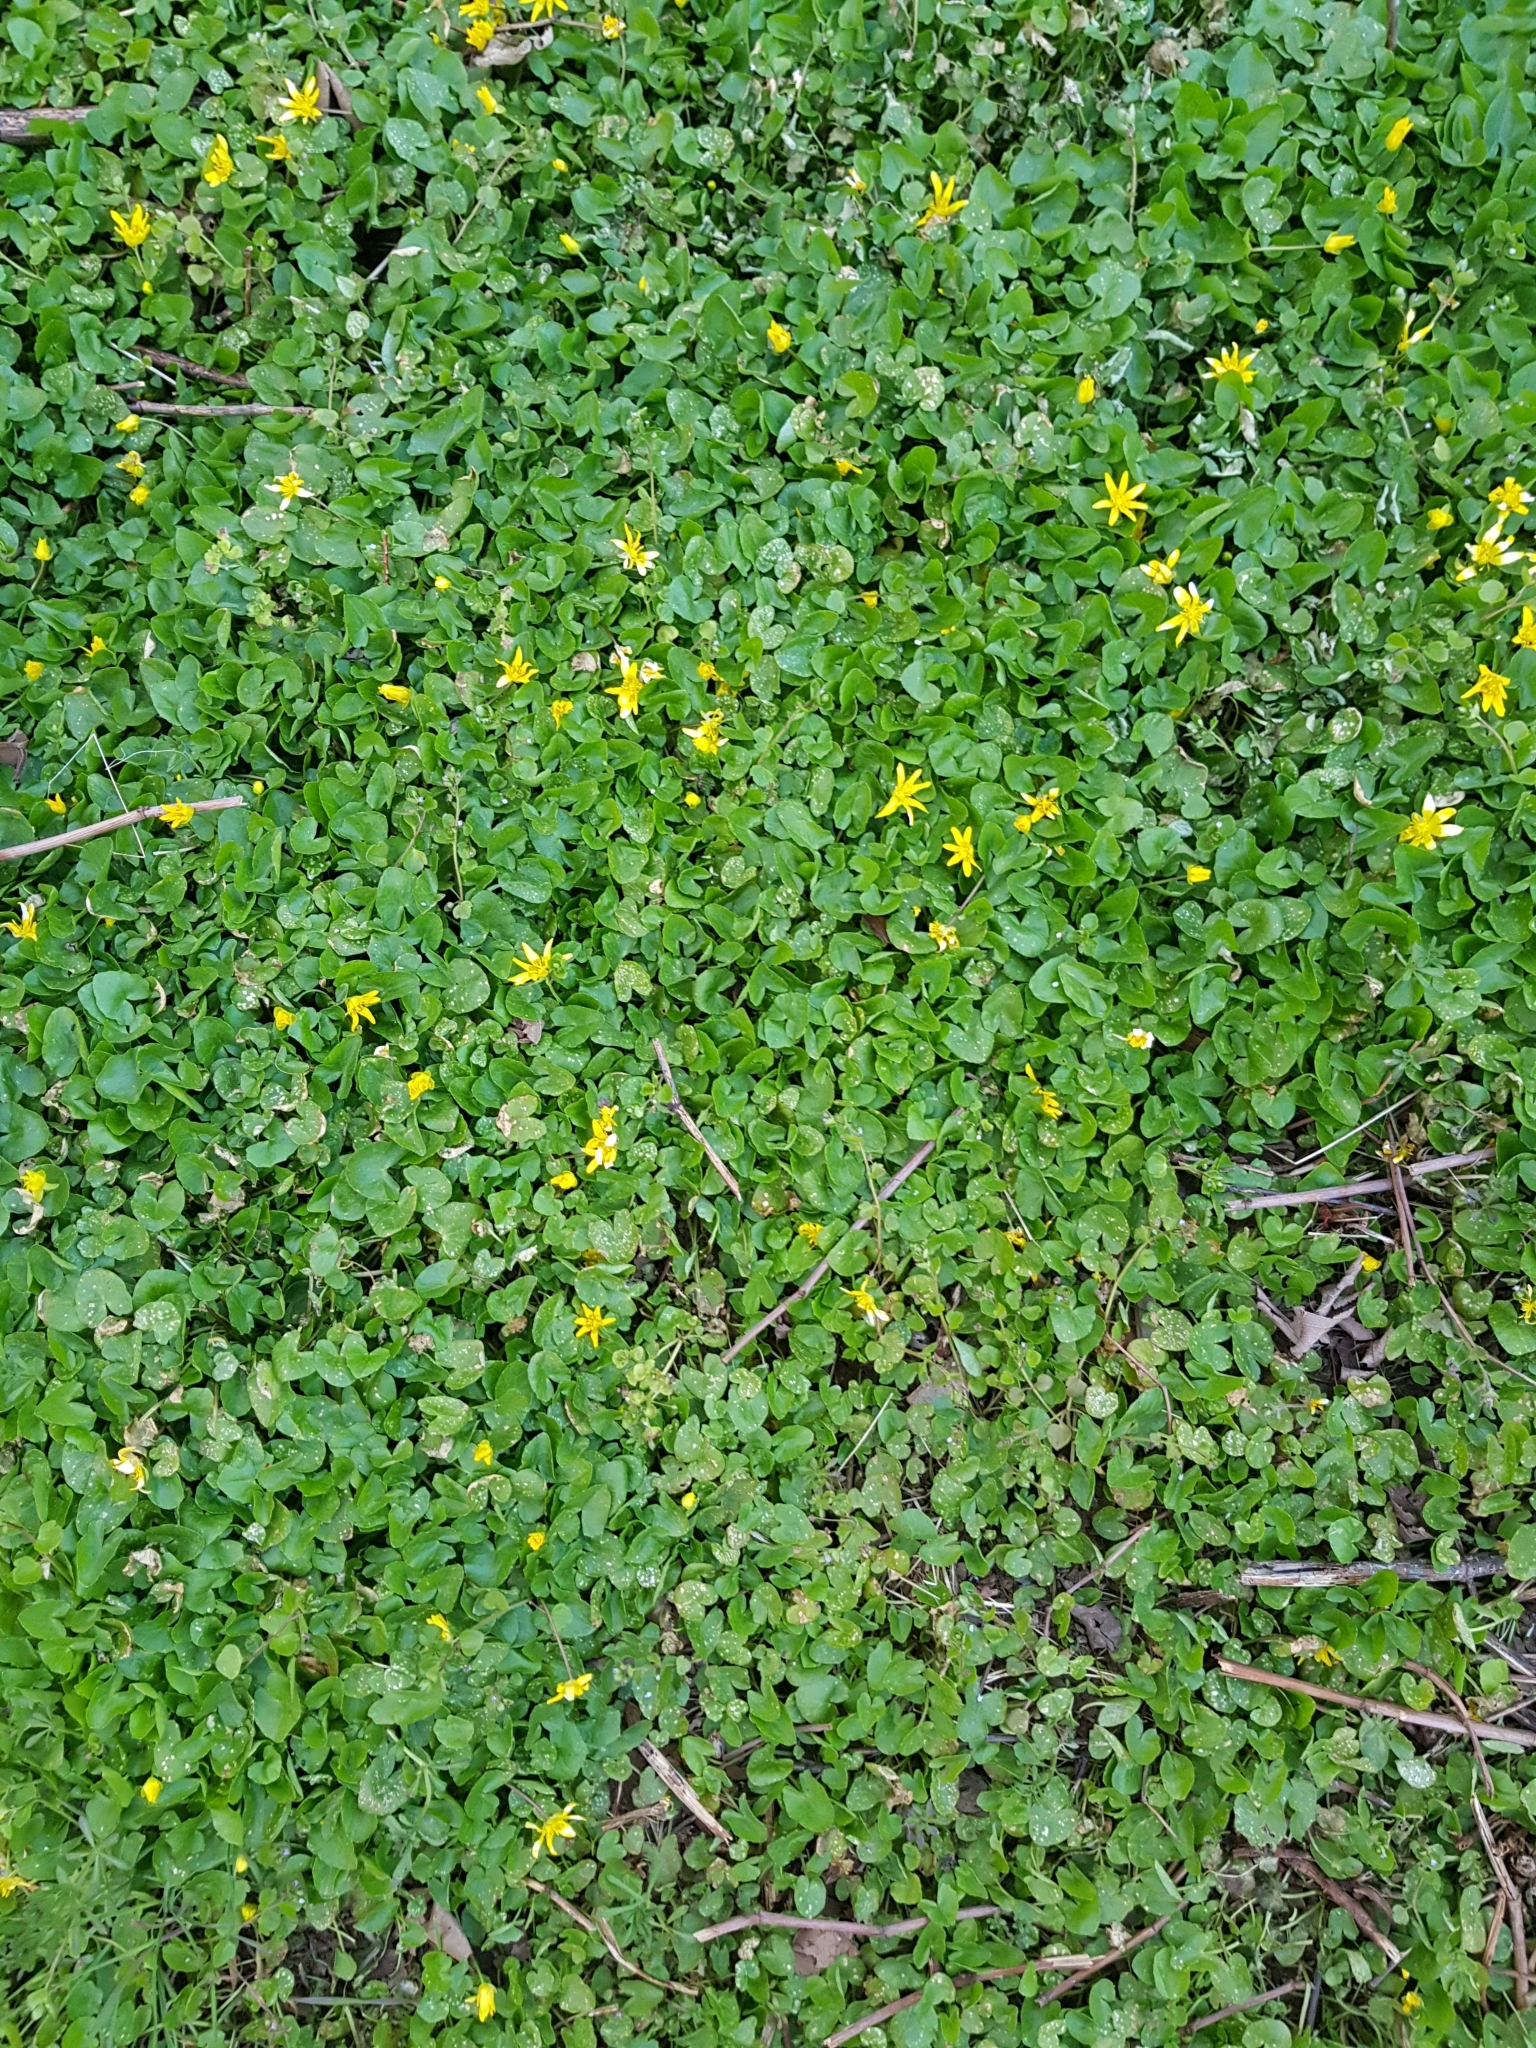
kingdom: Plantae
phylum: Tracheophyta
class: Magnoliopsida
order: Ranunculales
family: Ranunculaceae
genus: Ficaria
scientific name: Ficaria verna
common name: Lesser celandine
